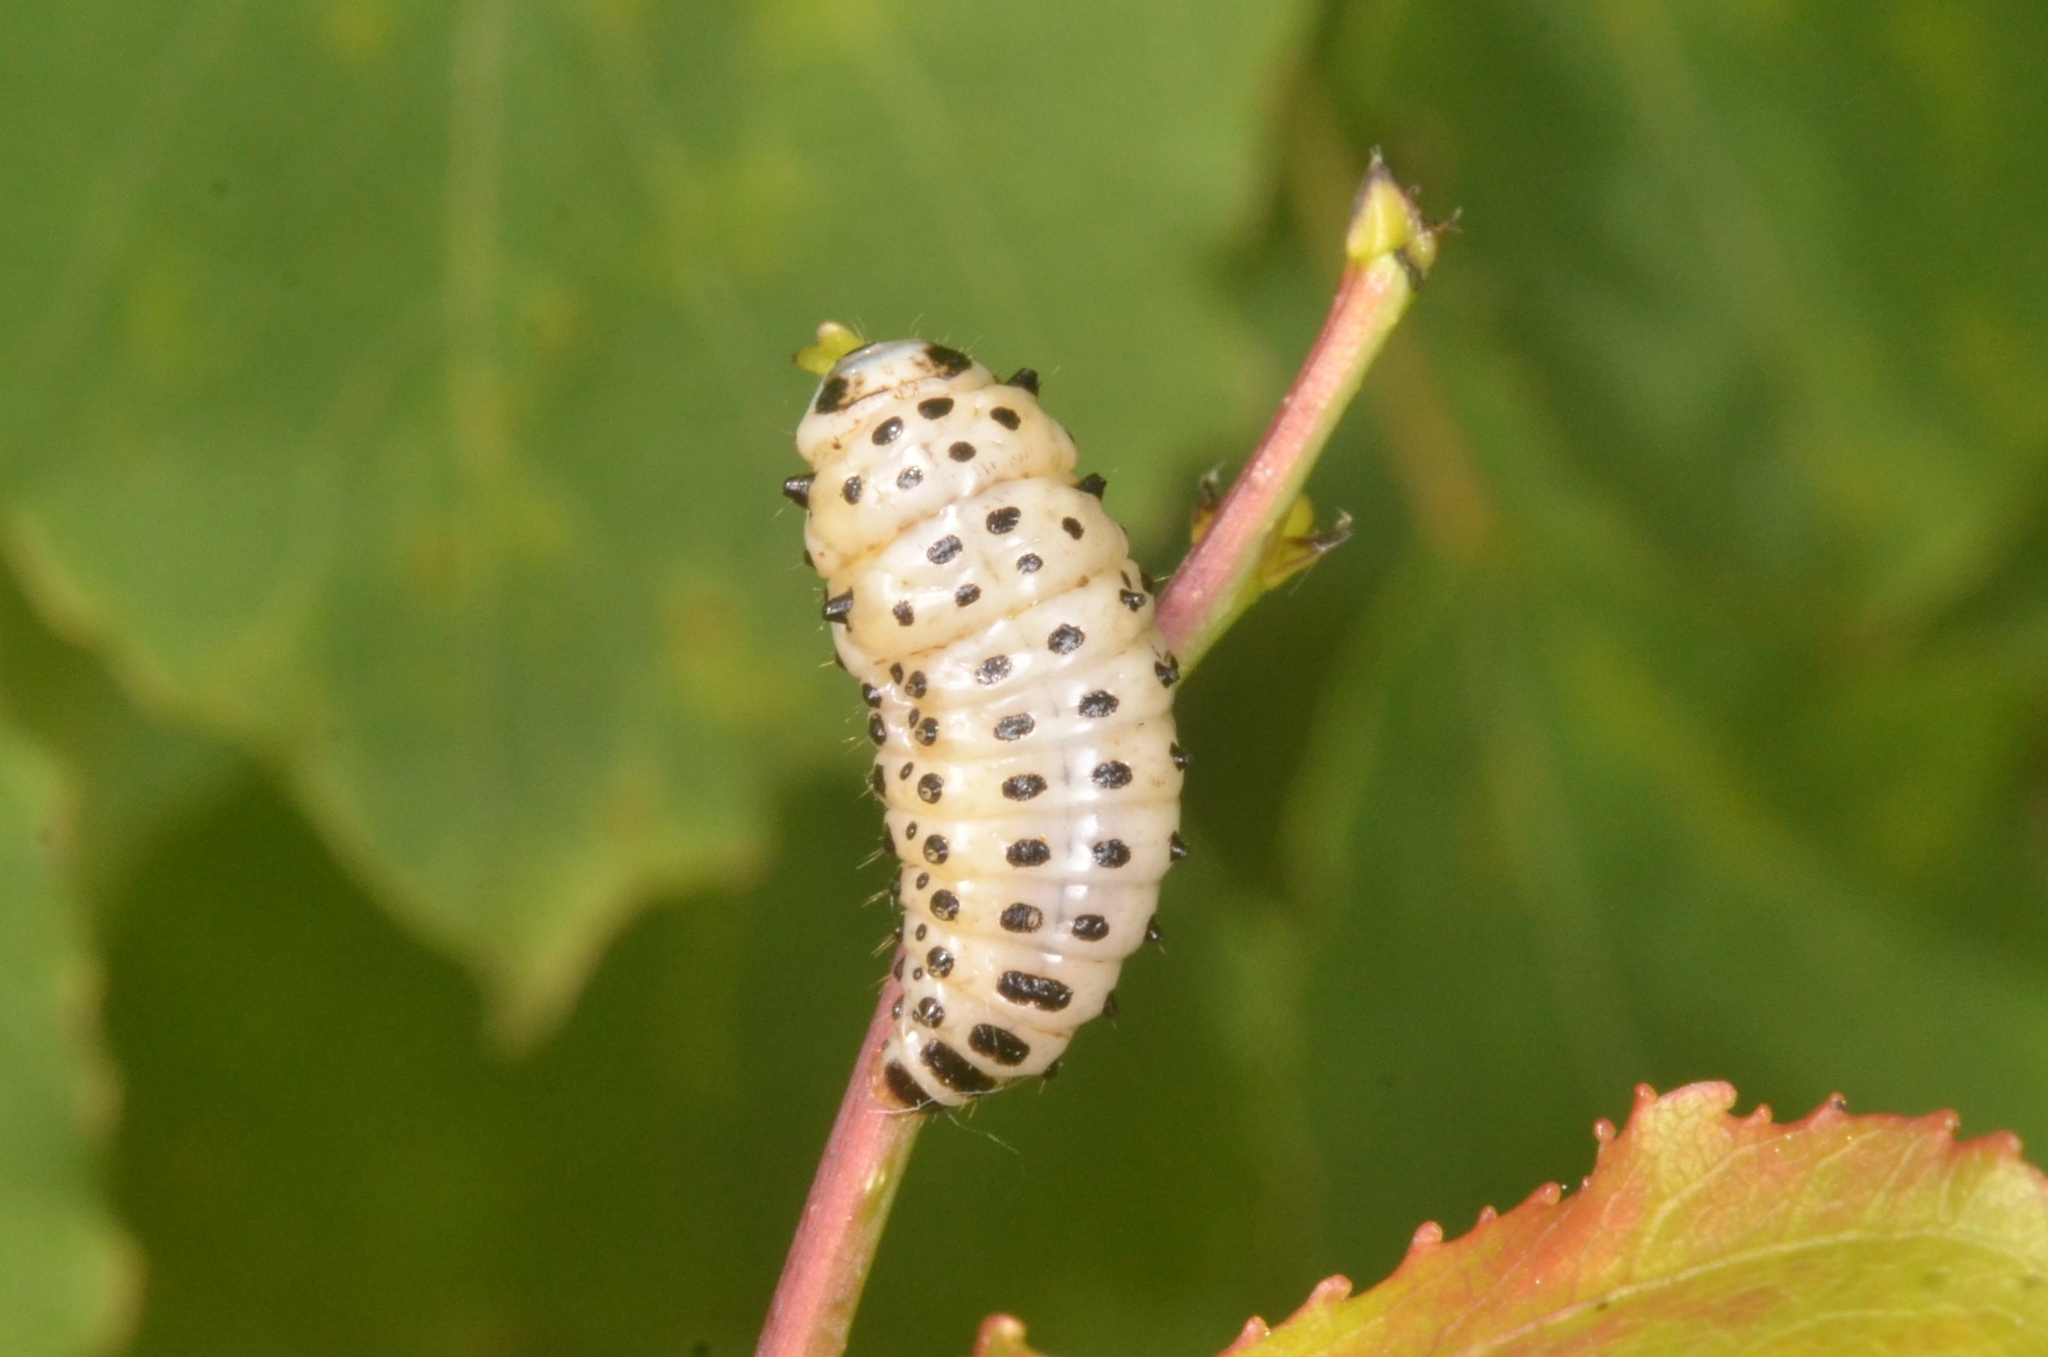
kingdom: Animalia
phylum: Arthropoda
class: Insecta
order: Coleoptera
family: Chrysomelidae
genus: Chrysomela
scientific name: Chrysomela populi
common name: Red poplar leaf beetle
